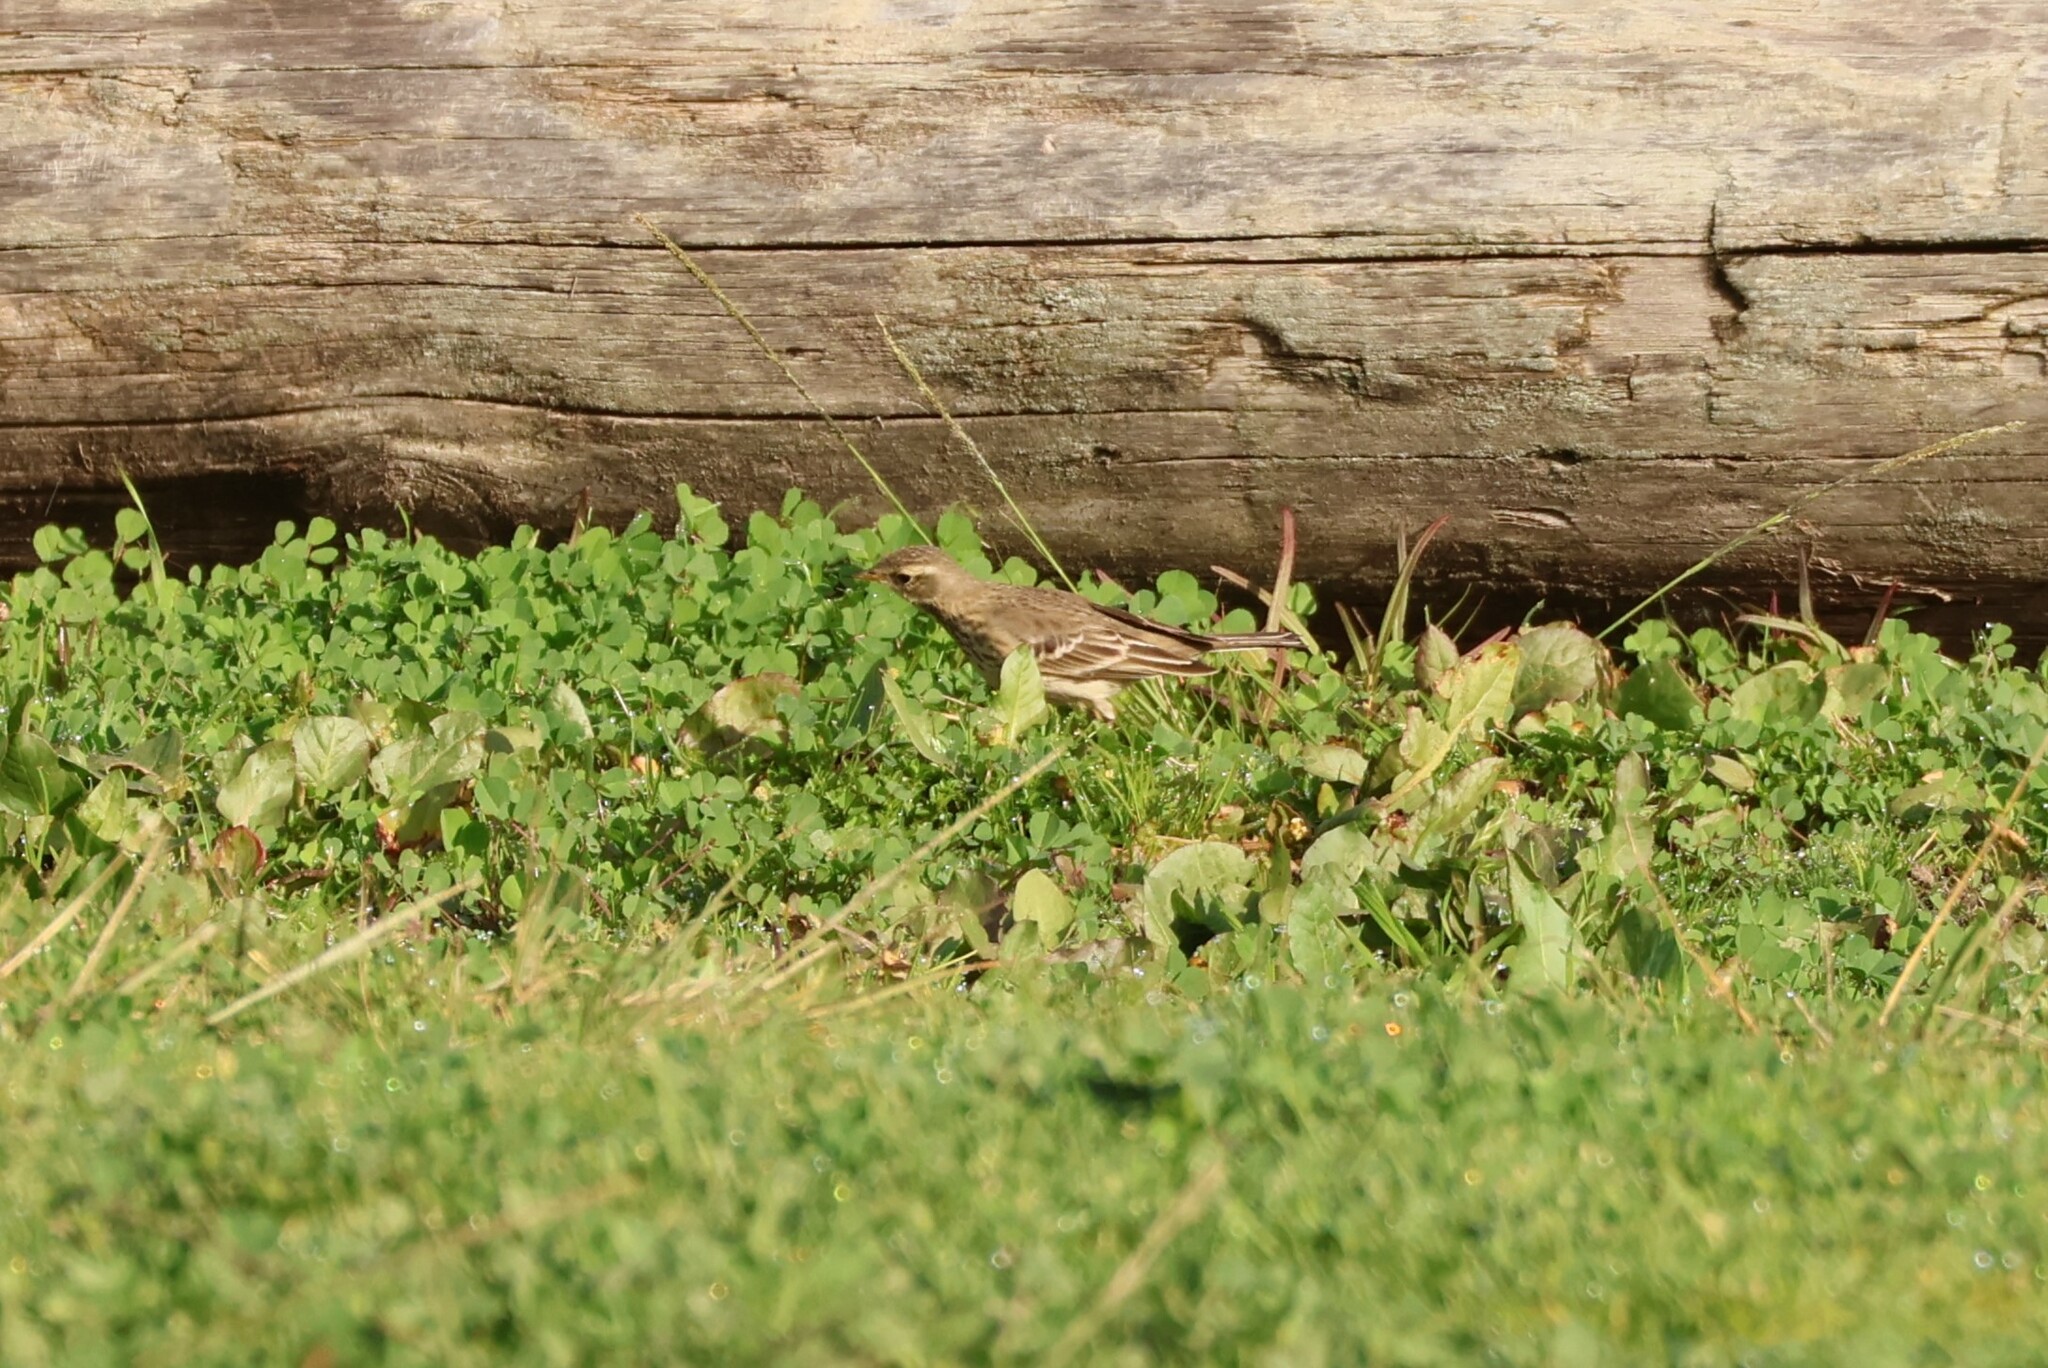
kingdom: Animalia
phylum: Chordata
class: Aves
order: Passeriformes
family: Motacillidae
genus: Anthus
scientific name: Anthus rubescens
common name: Buff-bellied pipit
